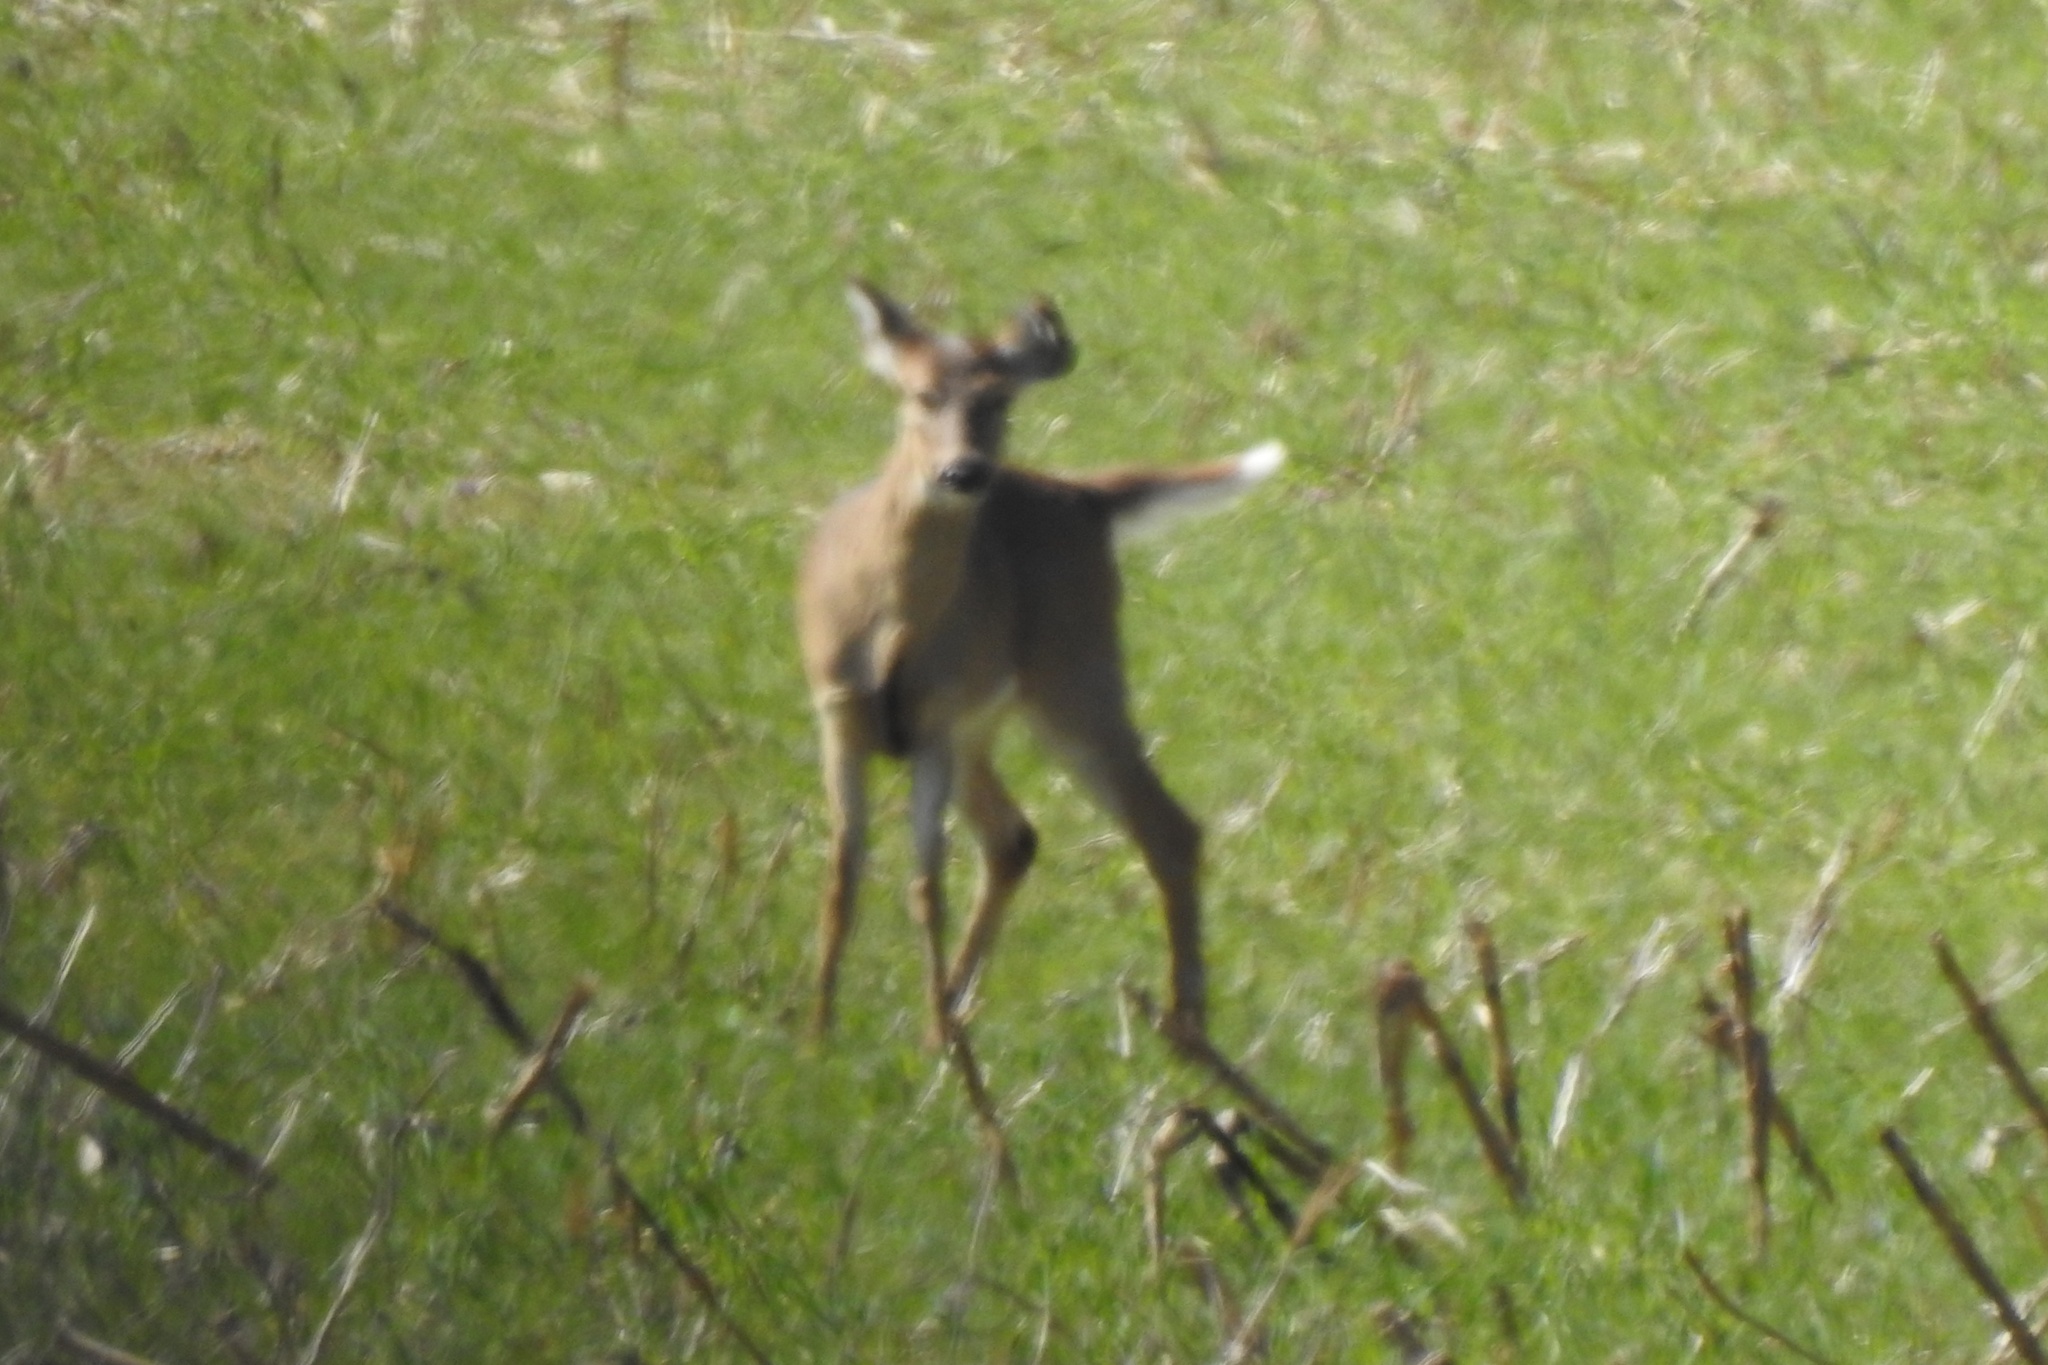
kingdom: Animalia
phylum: Chordata
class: Mammalia
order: Artiodactyla
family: Cervidae
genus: Odocoileus
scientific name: Odocoileus virginianus
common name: White-tailed deer
